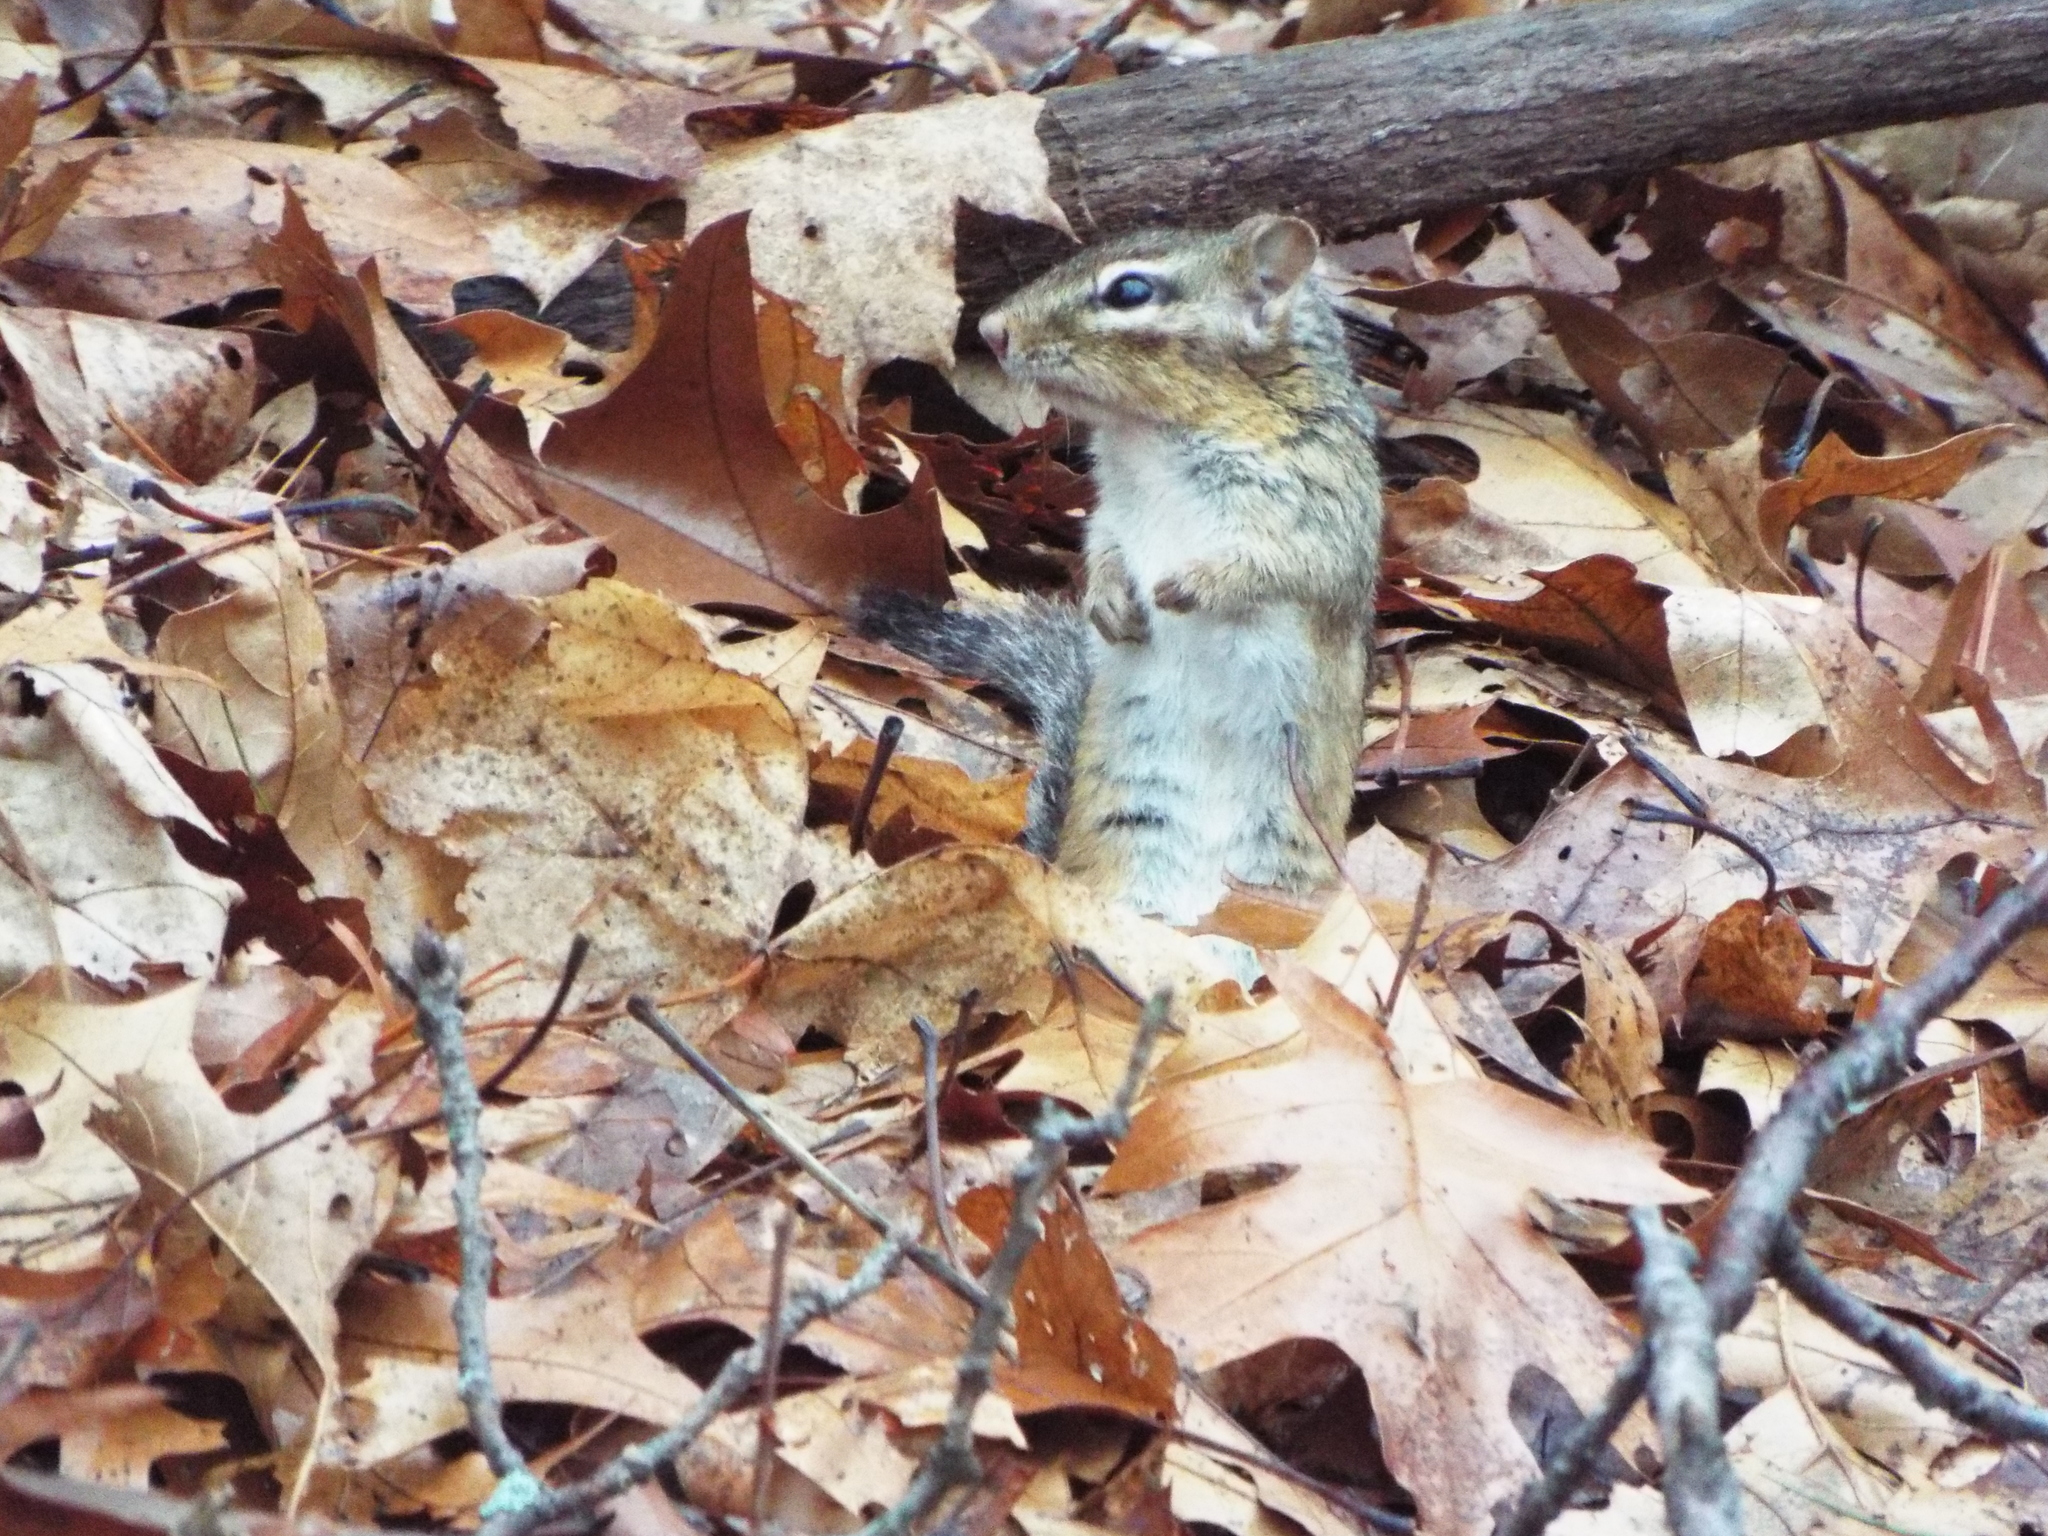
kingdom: Animalia
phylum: Chordata
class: Mammalia
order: Rodentia
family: Sciuridae
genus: Tamias
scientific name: Tamias striatus
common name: Eastern chipmunk
